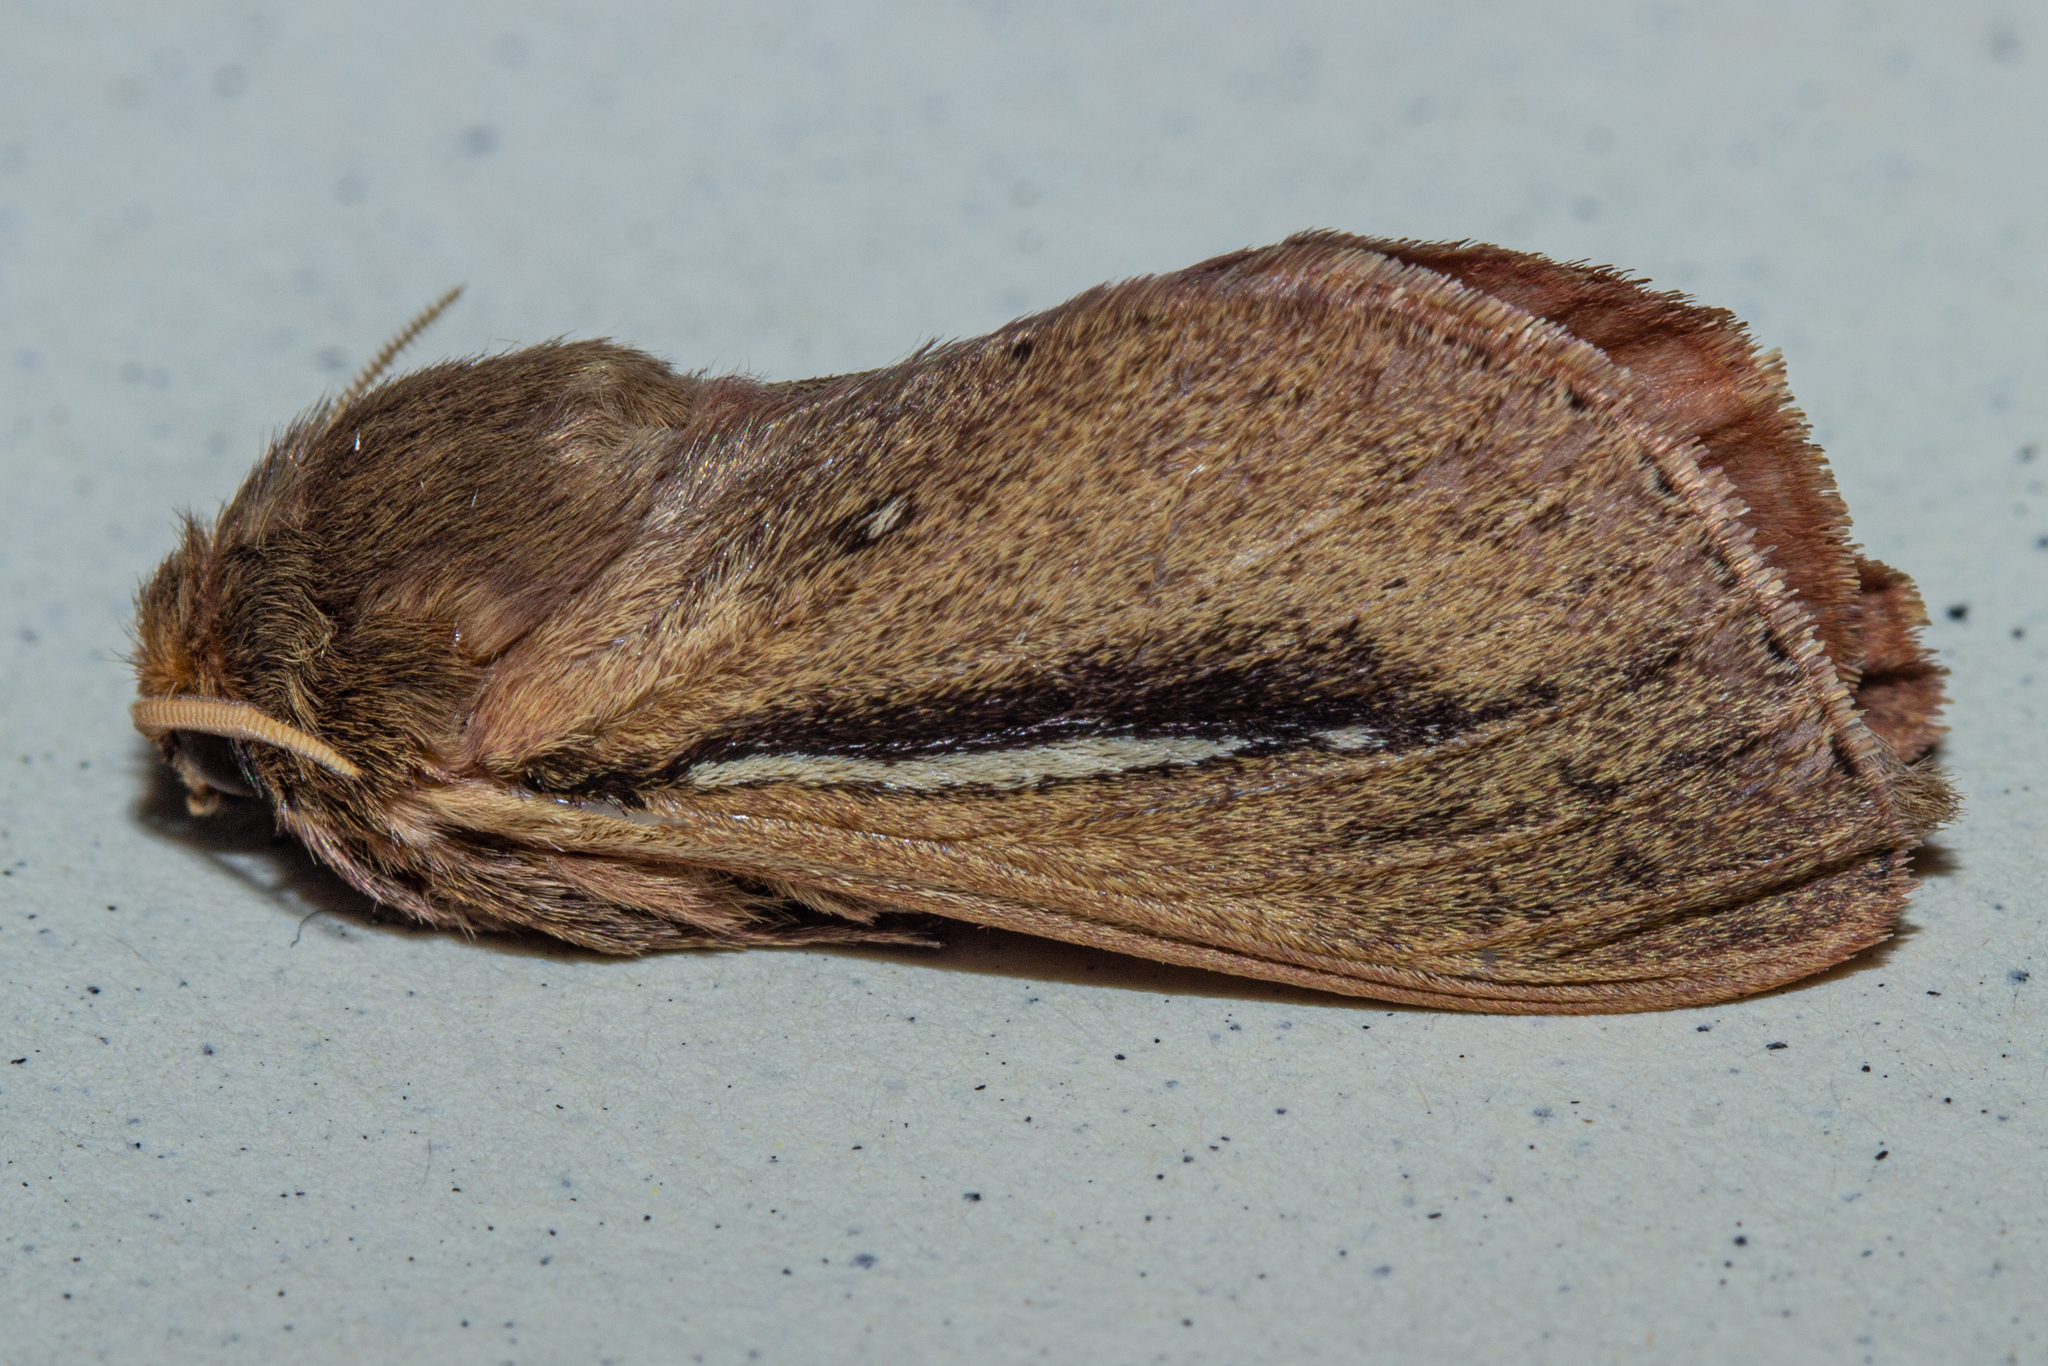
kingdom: Animalia
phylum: Arthropoda
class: Insecta
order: Lepidoptera
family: Hepialidae
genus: Wiseana
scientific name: Wiseana umbraculatus
